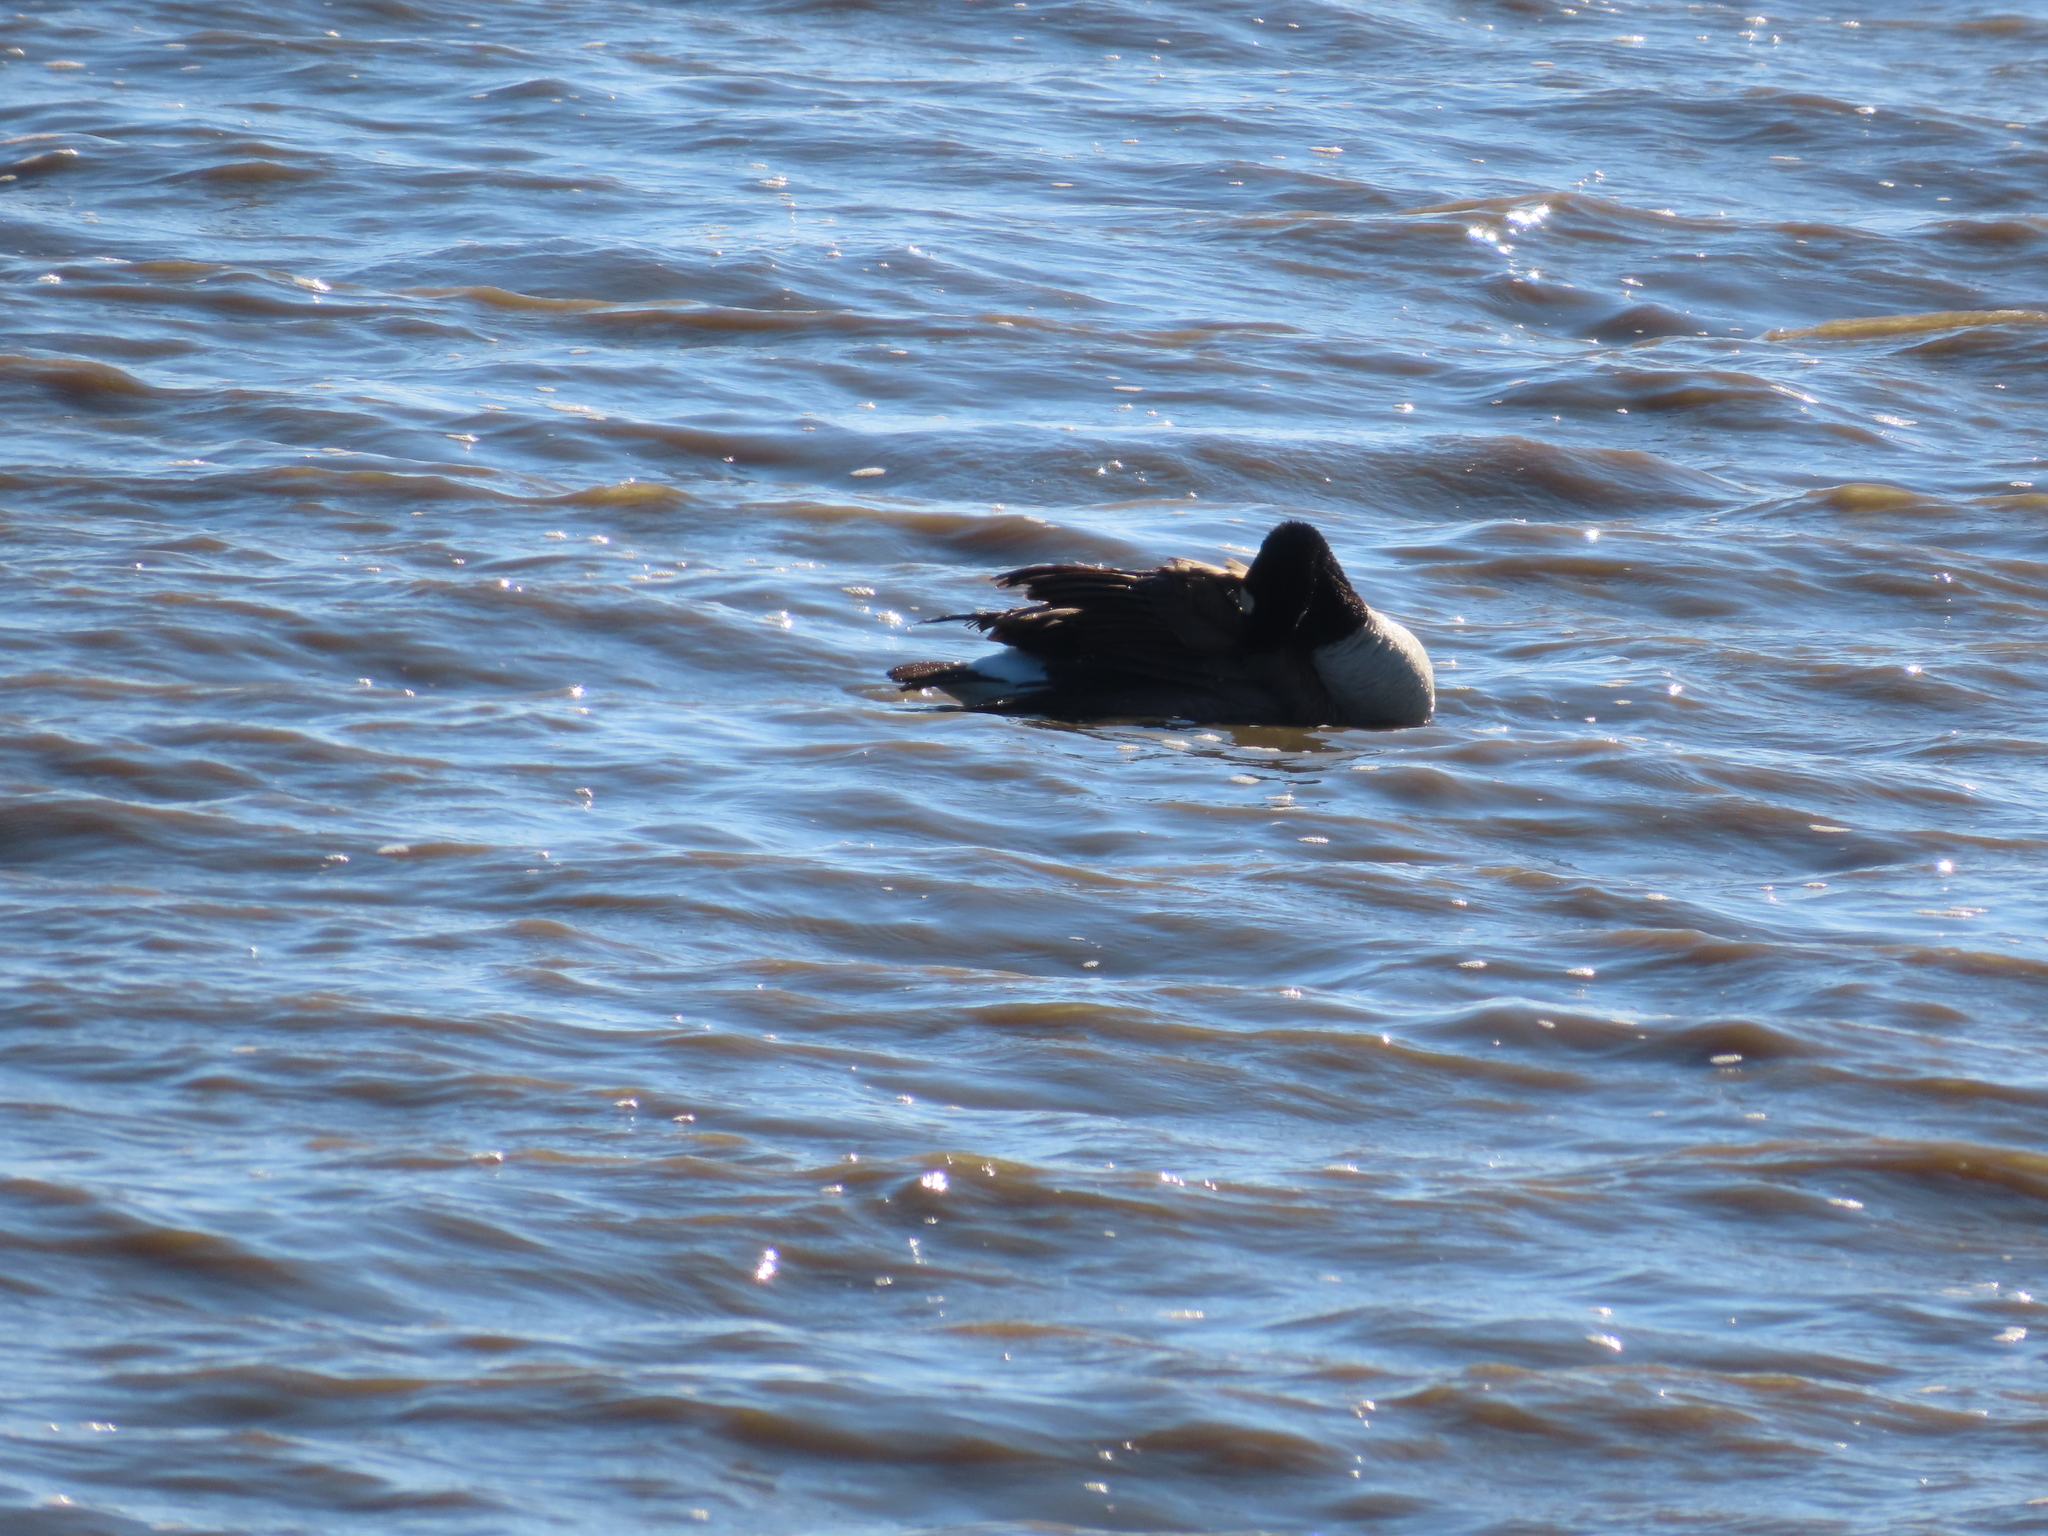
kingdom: Animalia
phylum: Chordata
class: Aves
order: Anseriformes
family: Anatidae
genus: Branta
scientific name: Branta canadensis
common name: Canada goose
